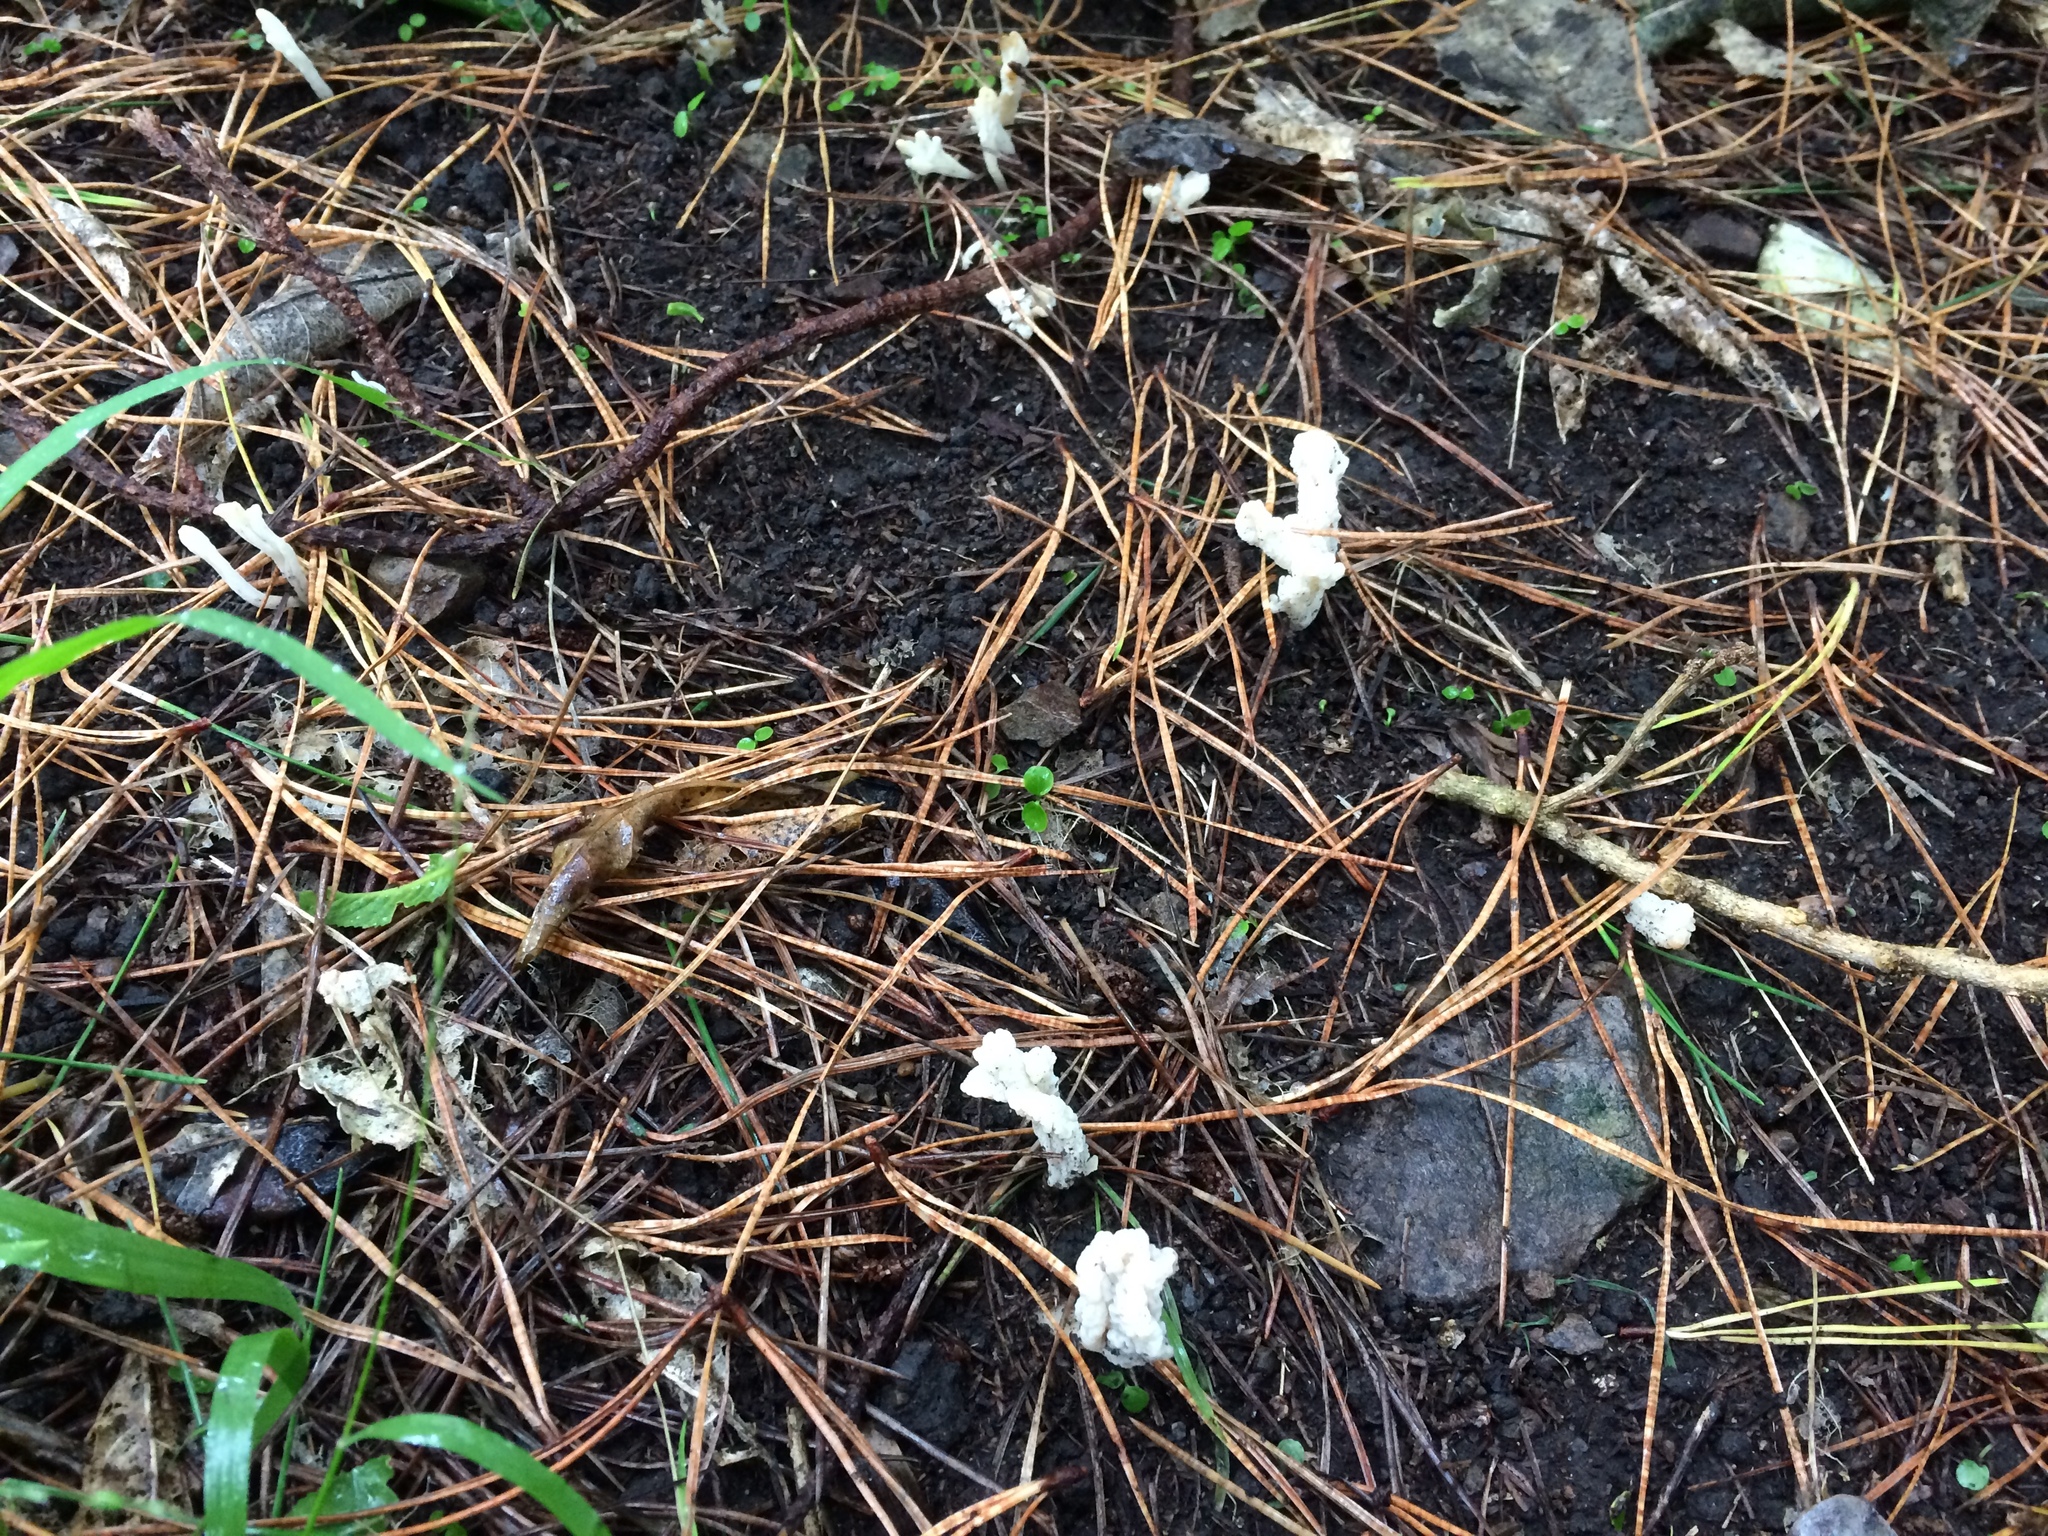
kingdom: Fungi
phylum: Basidiomycota
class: Agaricomycetes
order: Cantharellales
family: Hydnaceae
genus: Clavulina
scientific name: Clavulina rugosa
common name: Wrinkled club
